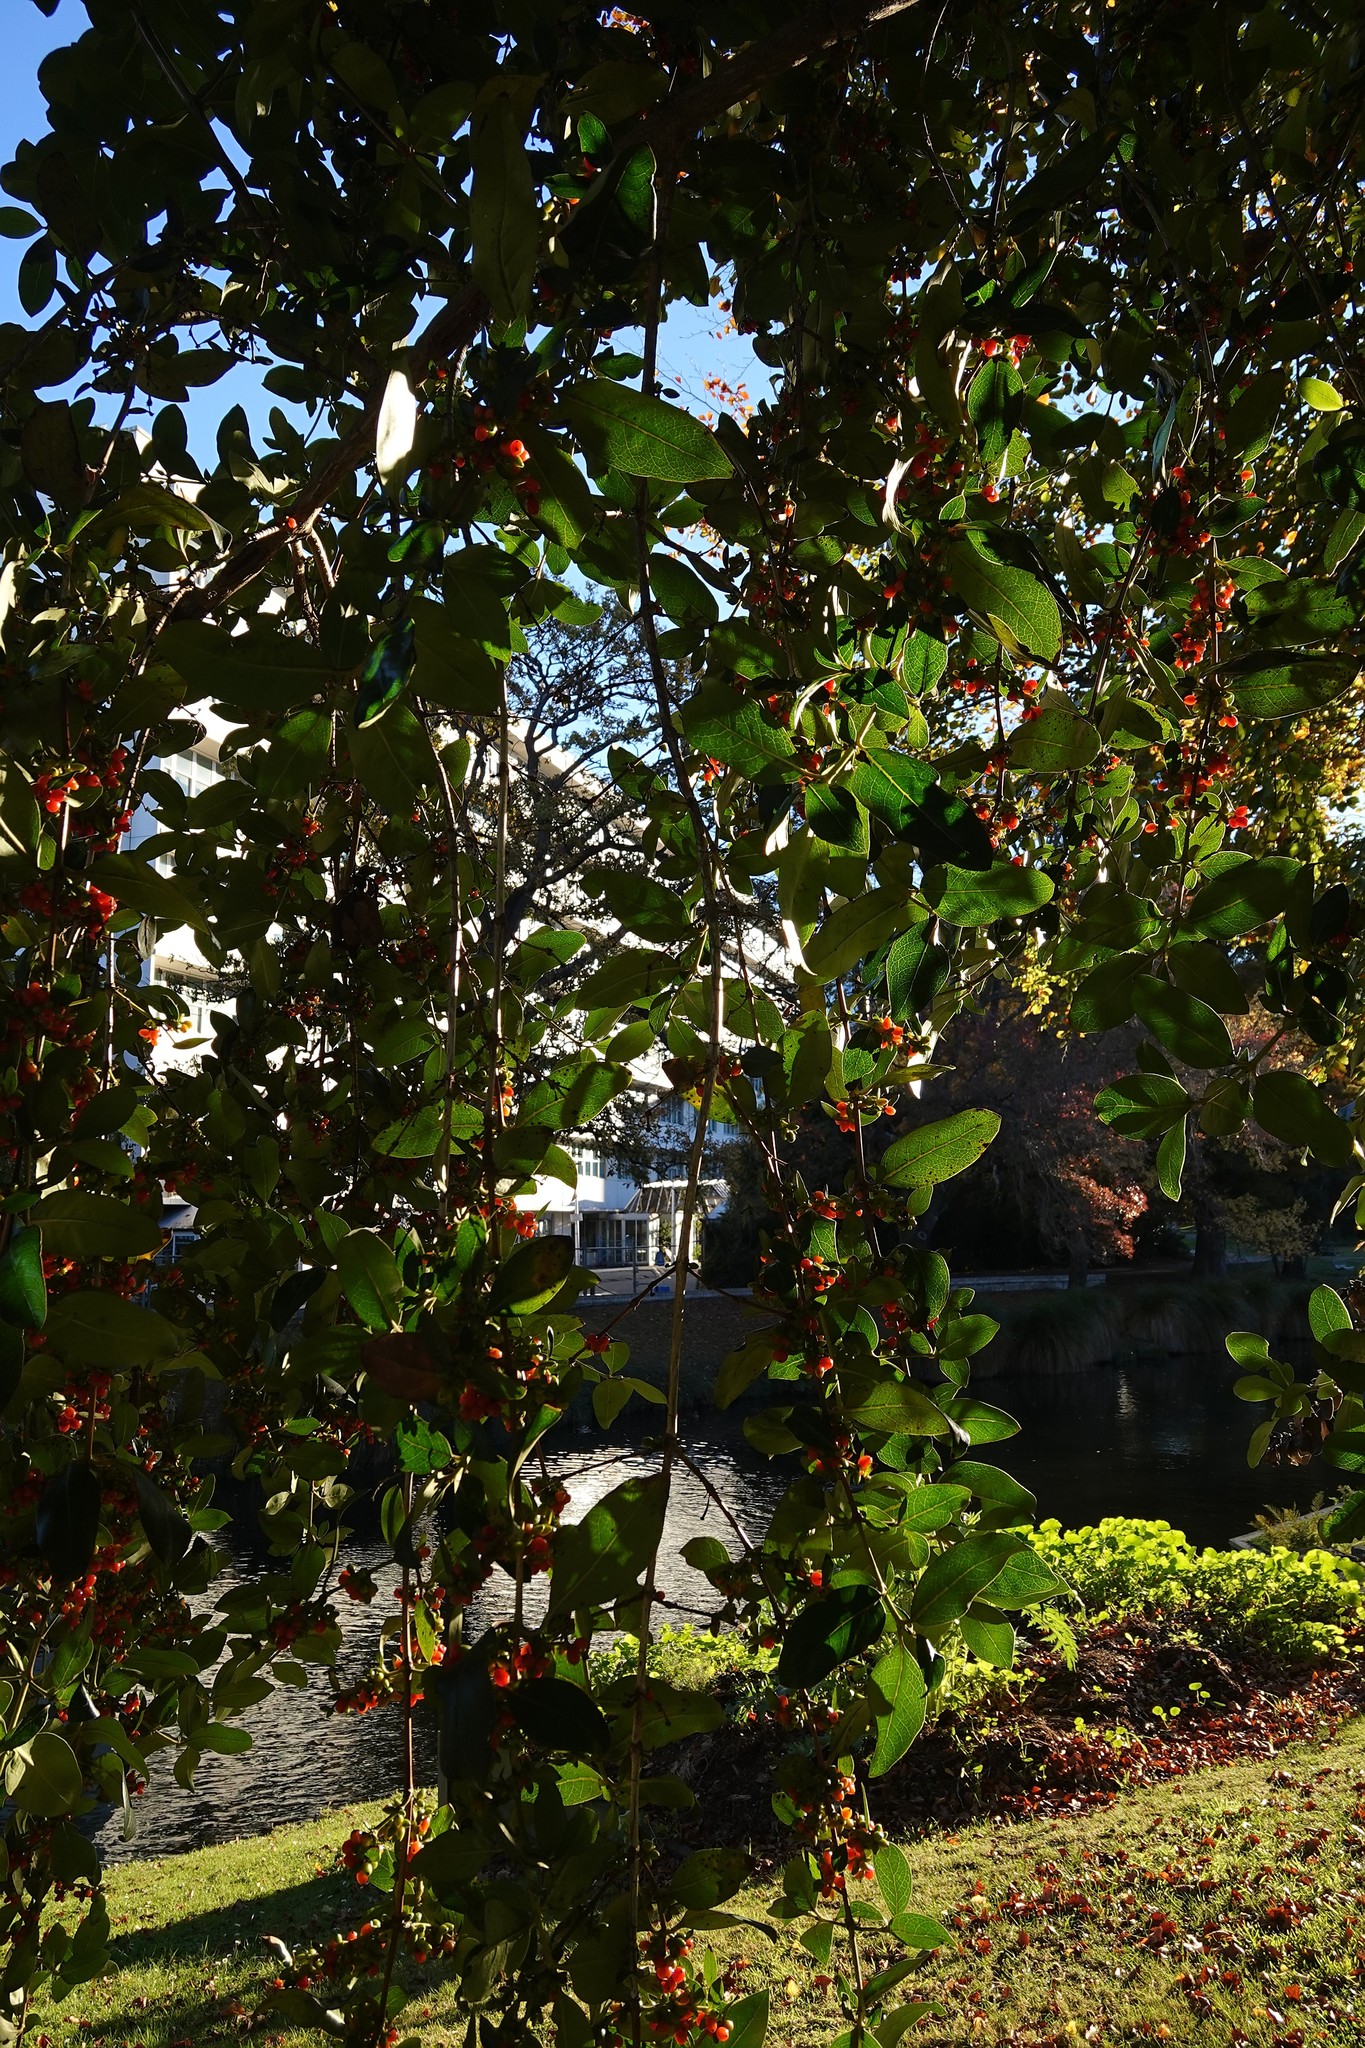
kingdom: Plantae
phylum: Tracheophyta
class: Magnoliopsida
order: Gentianales
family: Rubiaceae
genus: Coprosma
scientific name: Coprosma robusta
